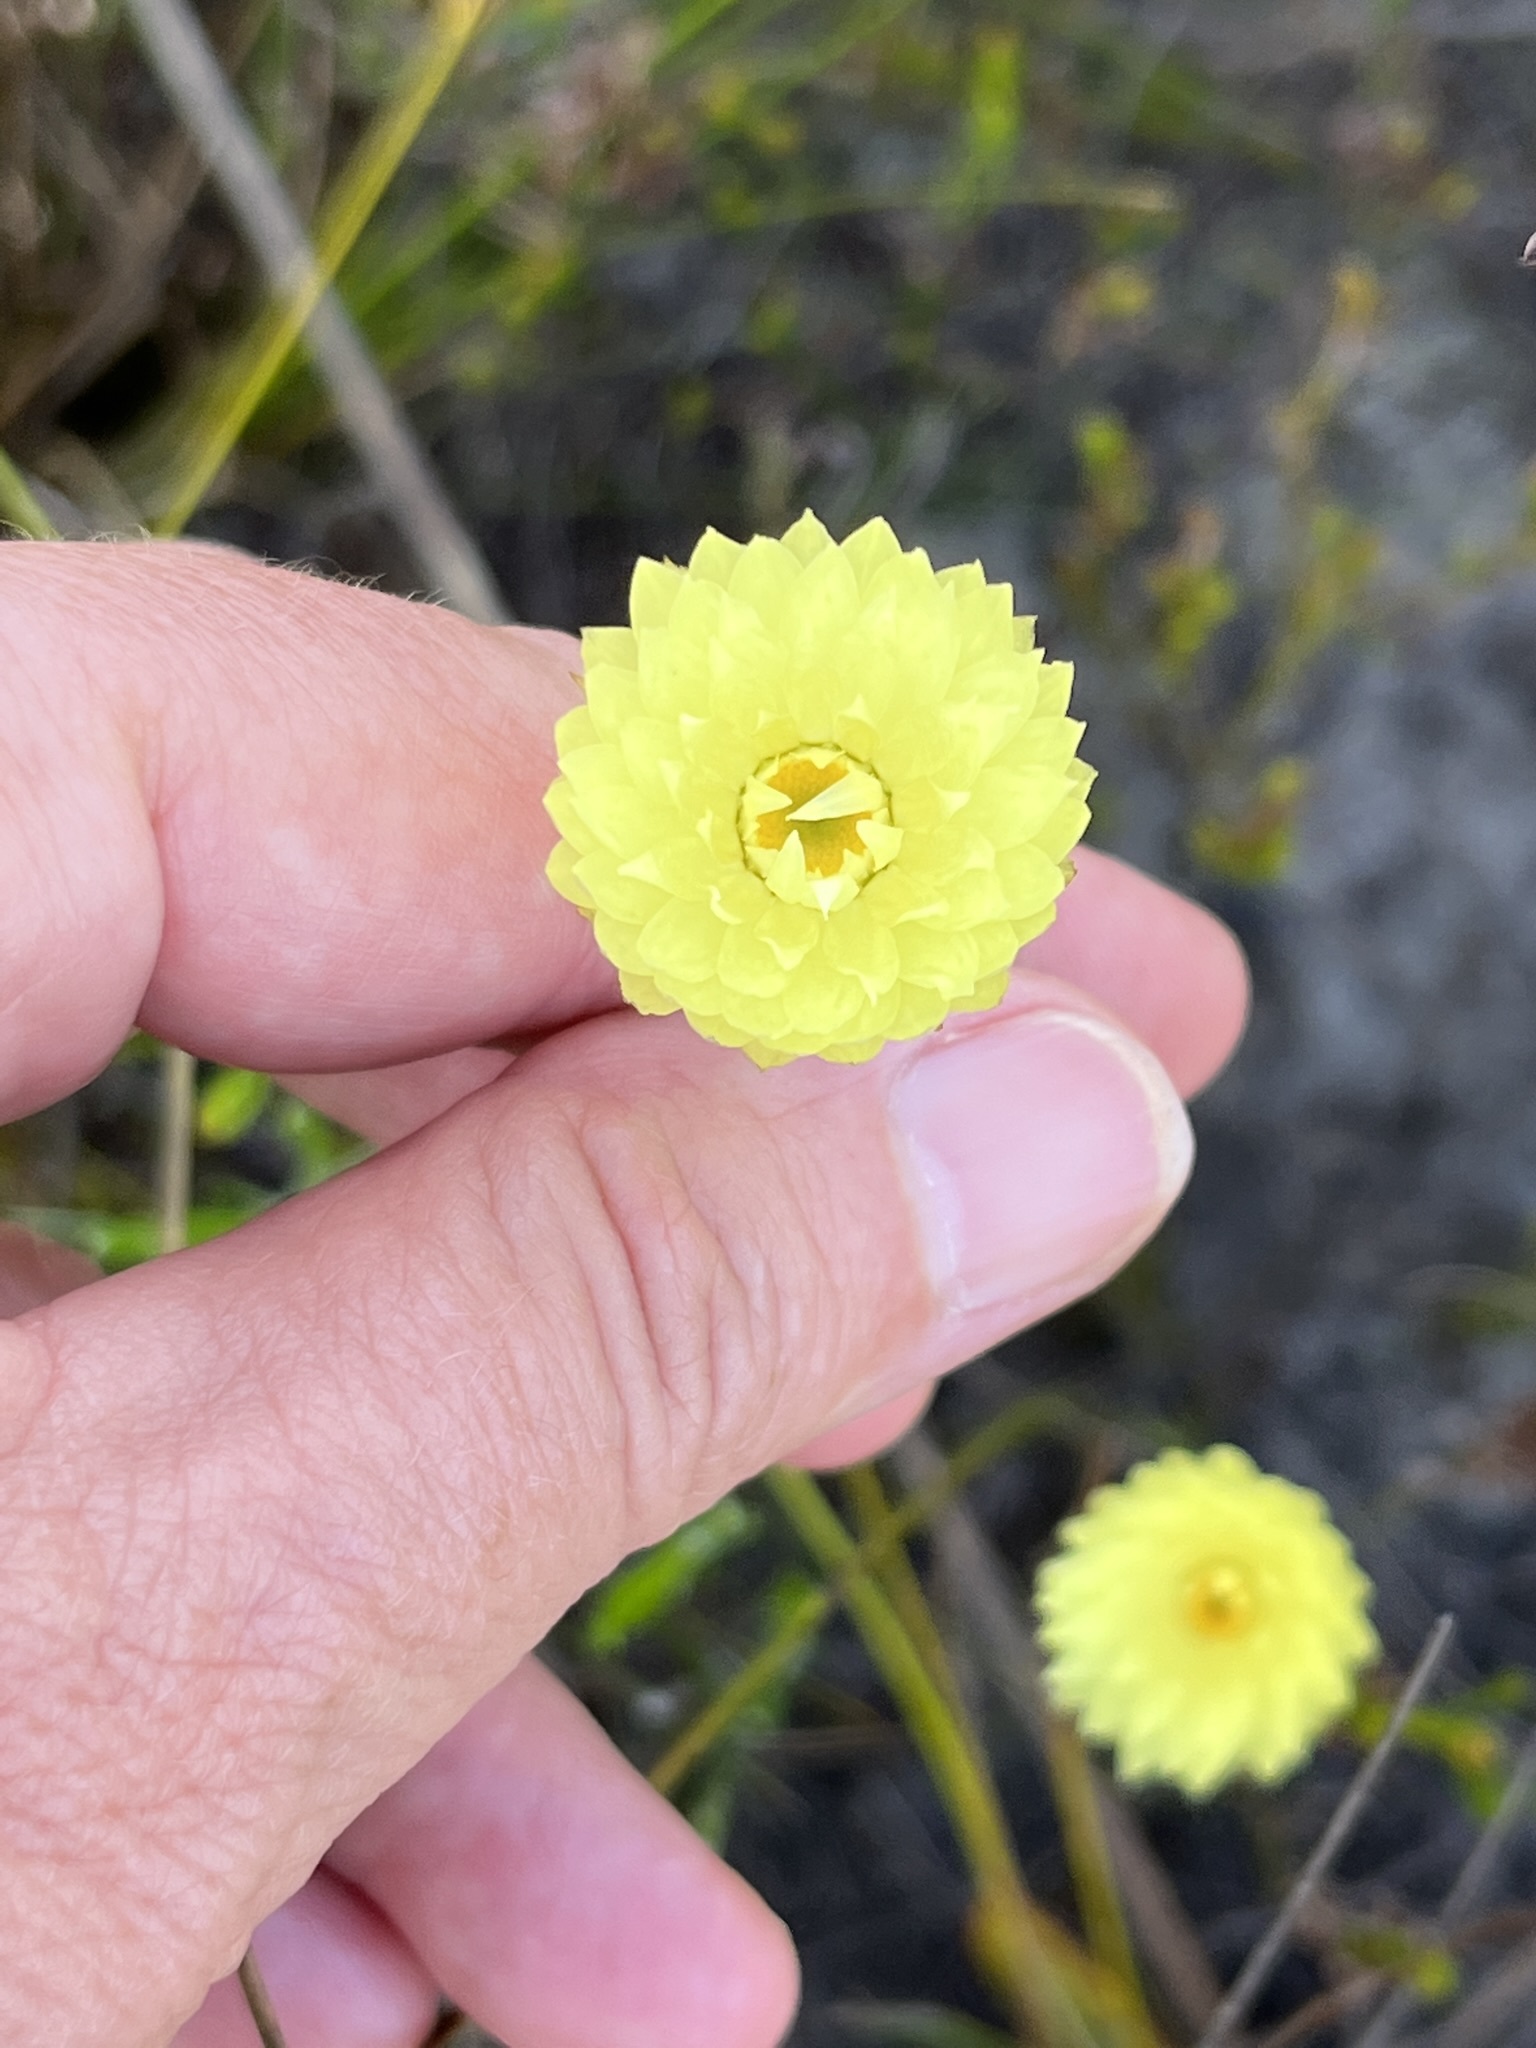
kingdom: Plantae
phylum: Tracheophyta
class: Magnoliopsida
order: Asterales
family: Asteraceae
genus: Edmondia
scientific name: Edmondia sesamoides
